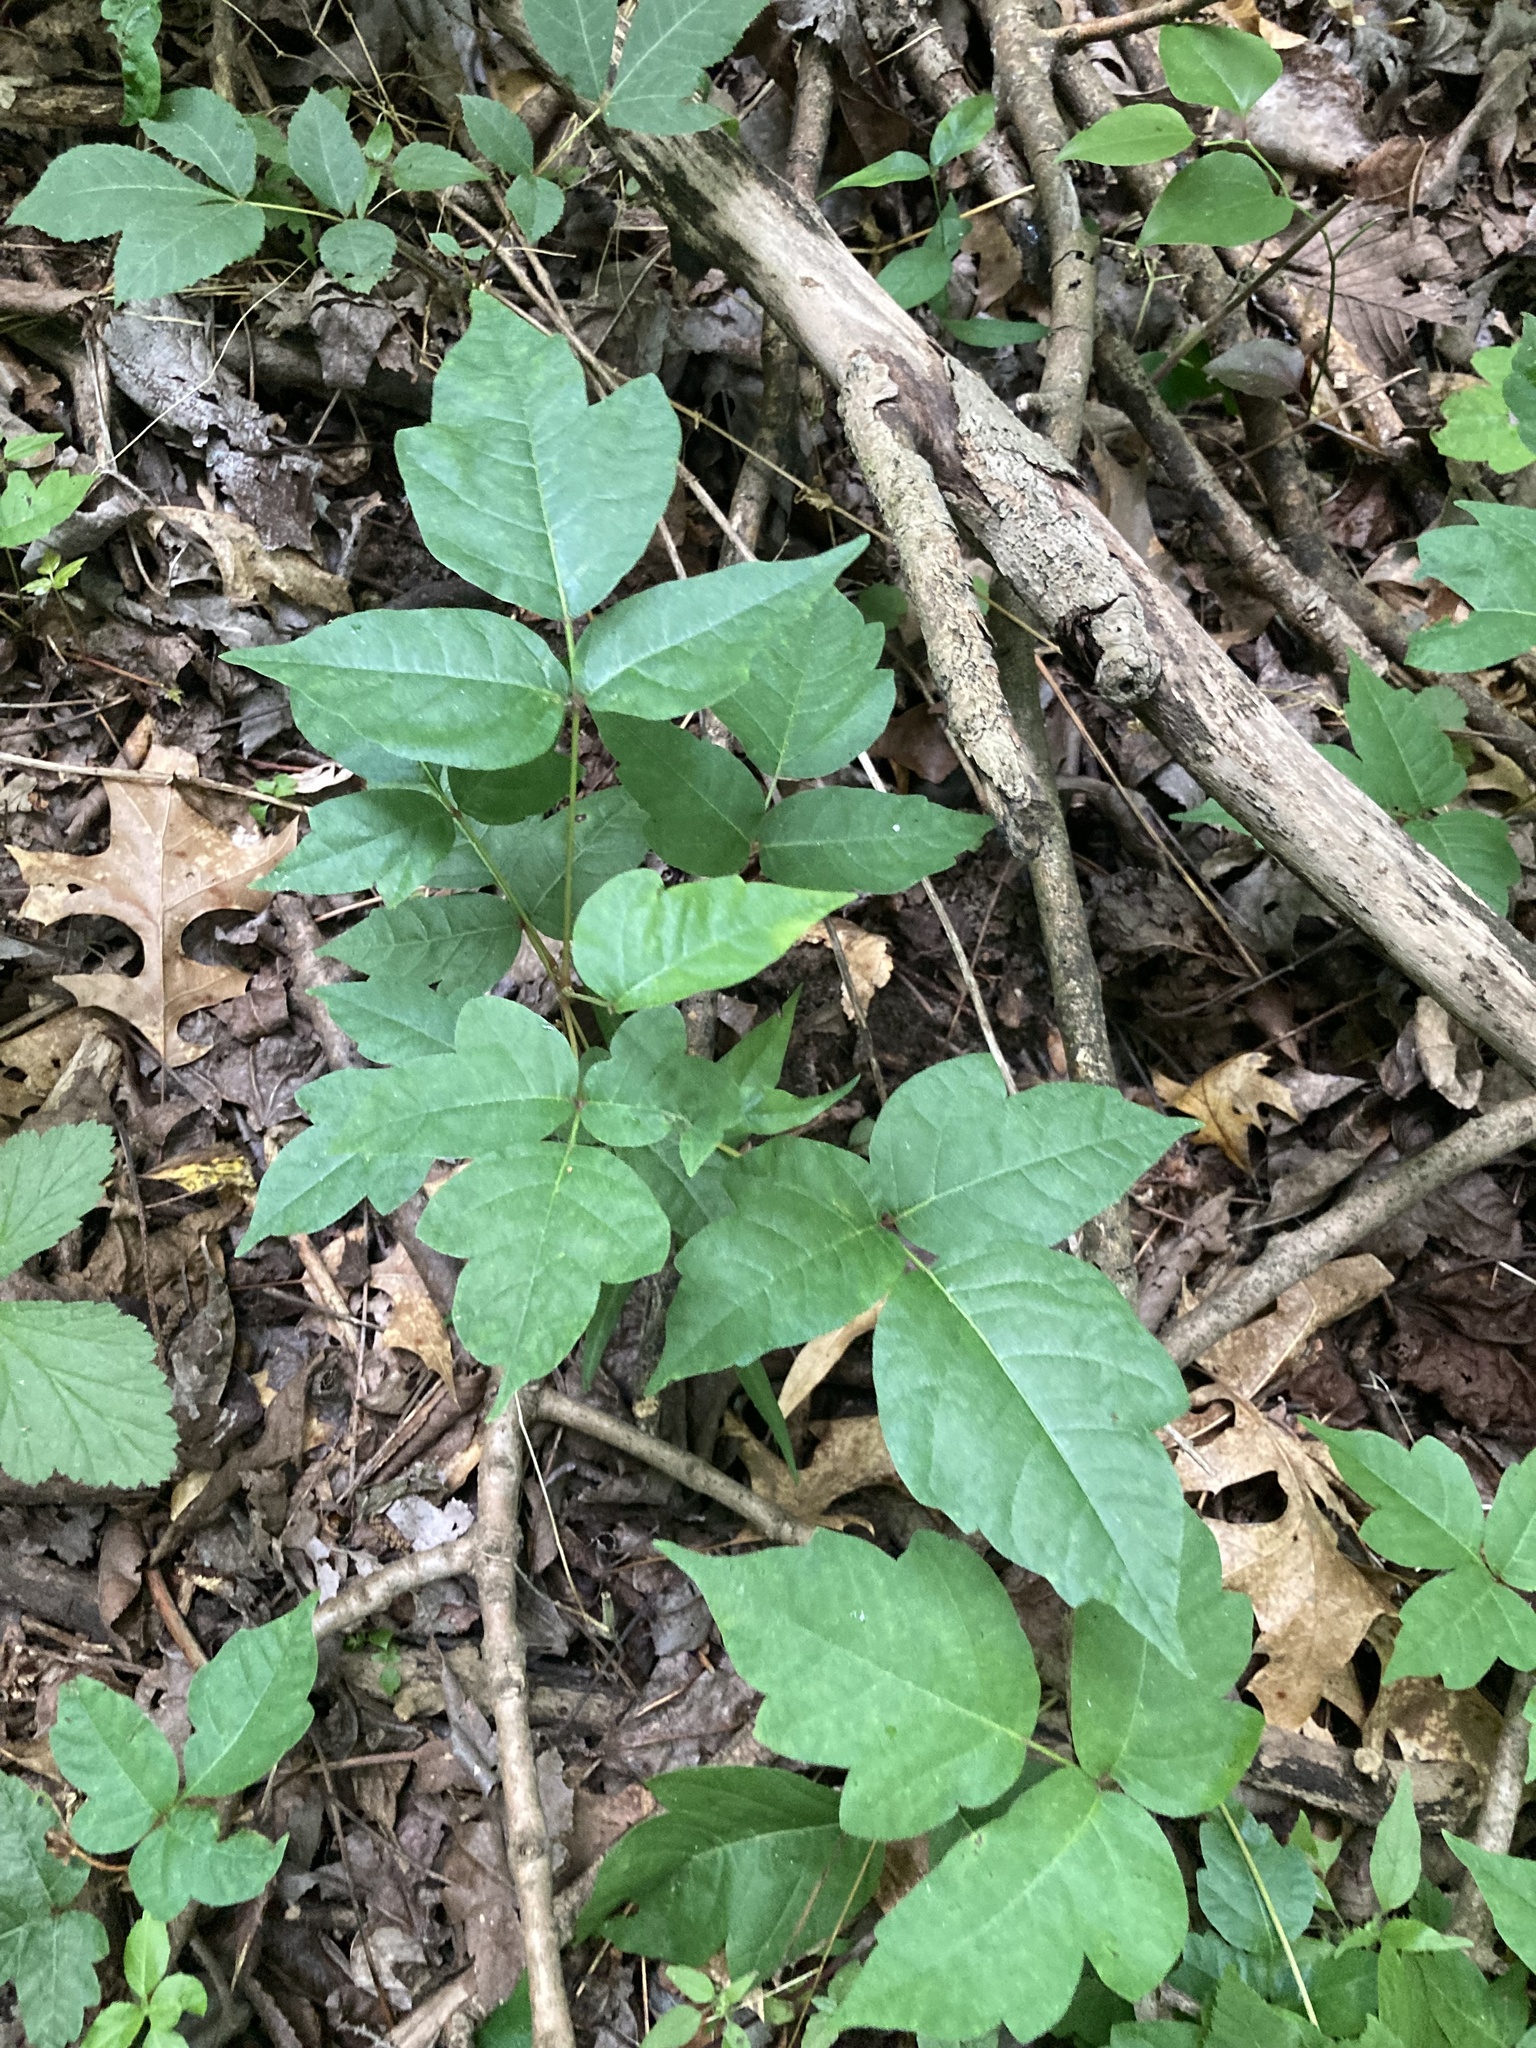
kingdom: Plantae
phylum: Tracheophyta
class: Magnoliopsida
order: Sapindales
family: Anacardiaceae
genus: Toxicodendron
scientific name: Toxicodendron radicans
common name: Poison ivy
